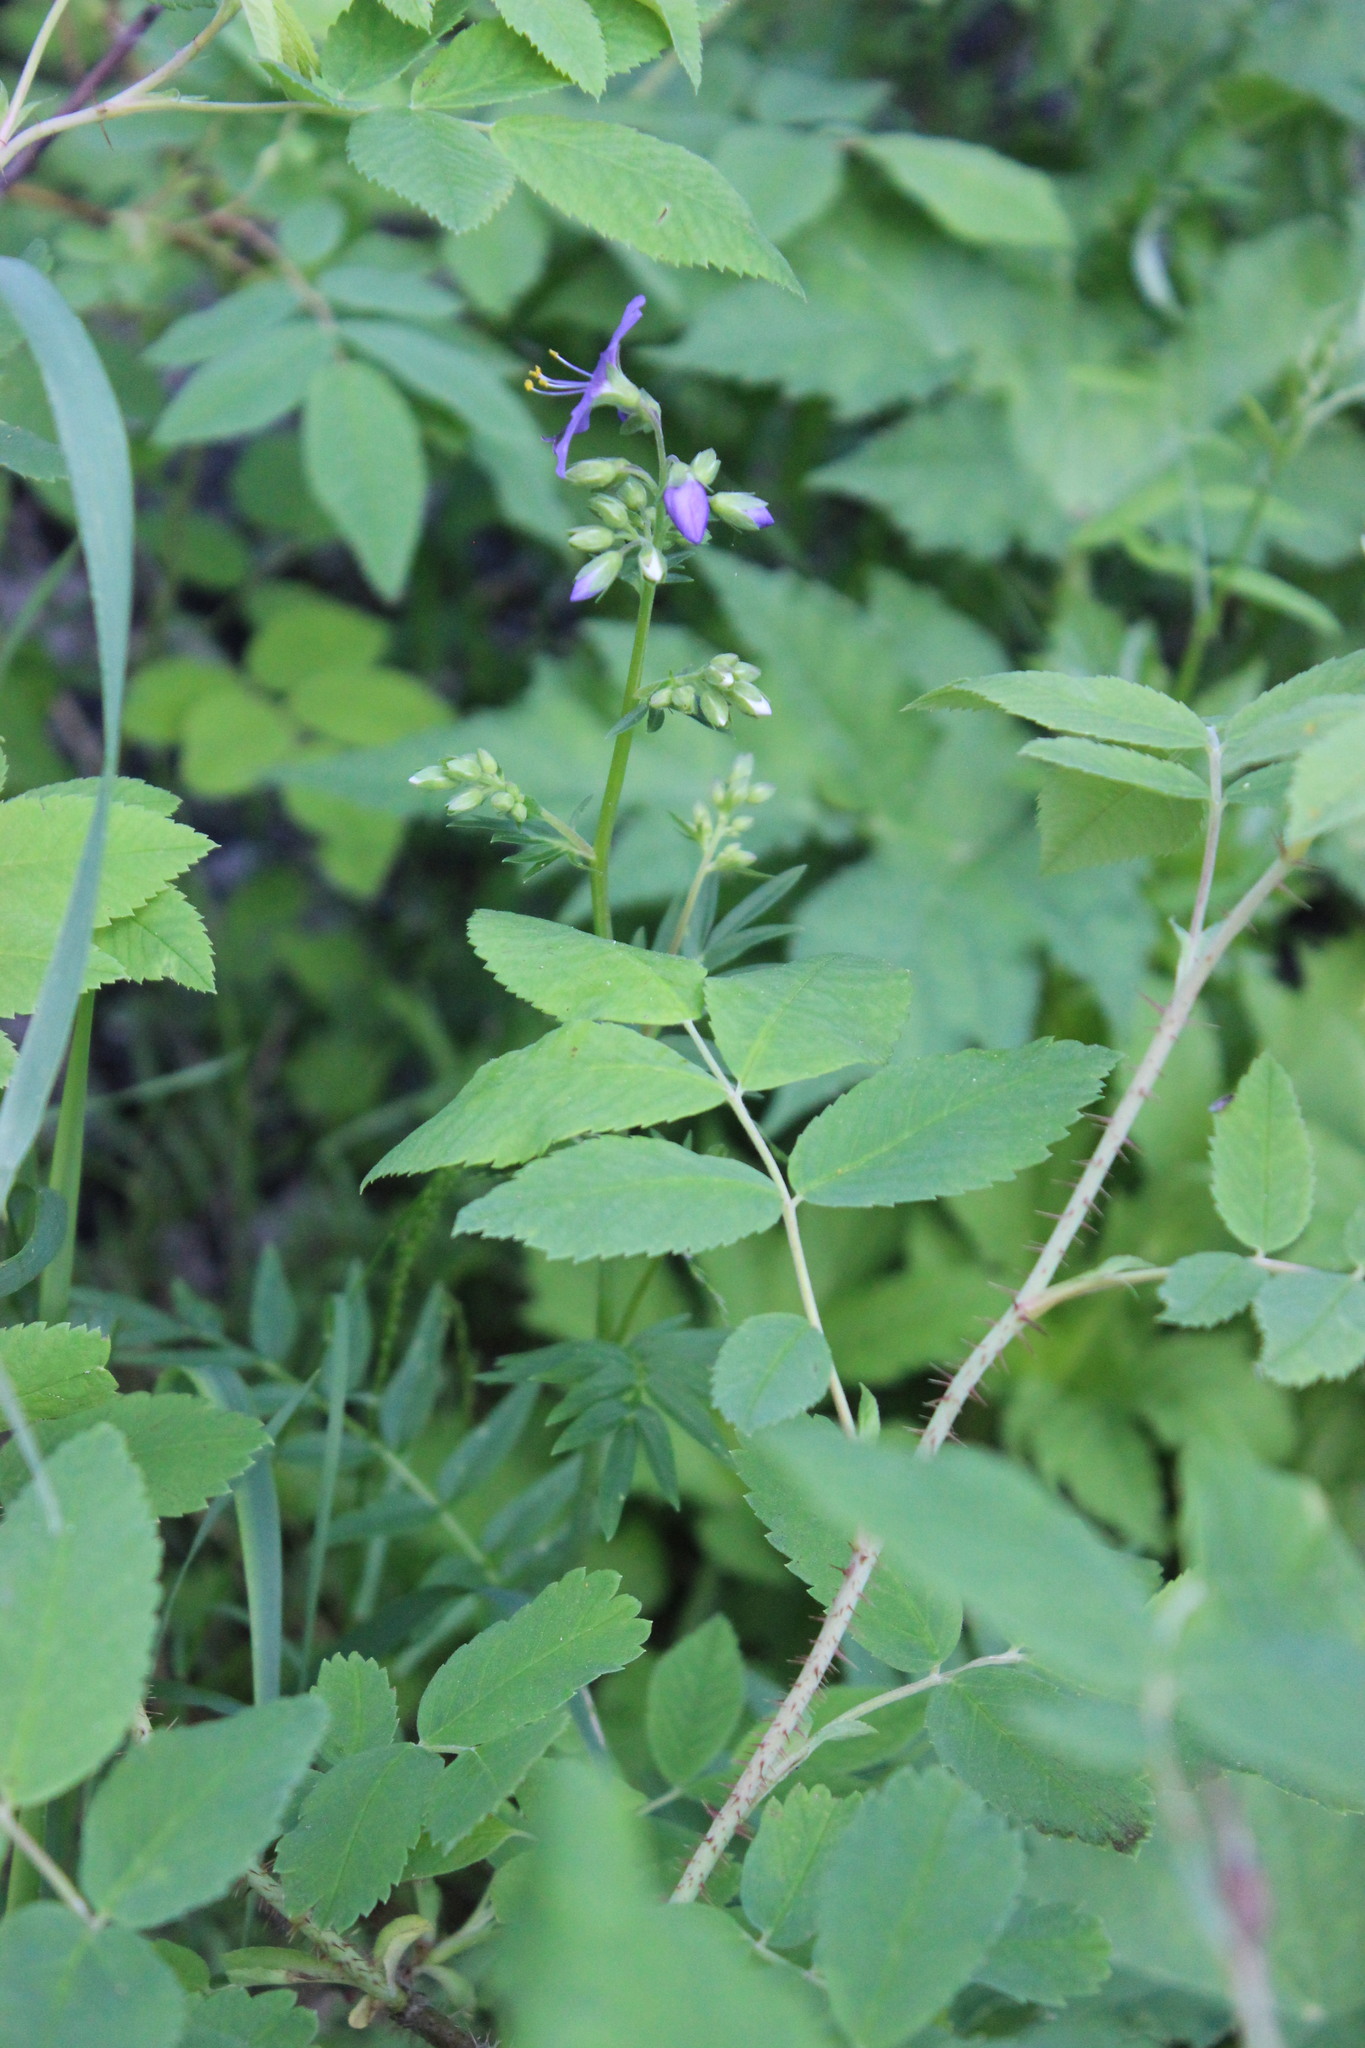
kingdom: Plantae
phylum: Tracheophyta
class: Magnoliopsida
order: Ericales
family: Polemoniaceae
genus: Polemonium
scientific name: Polemonium caeruleum
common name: Jacob's-ladder
